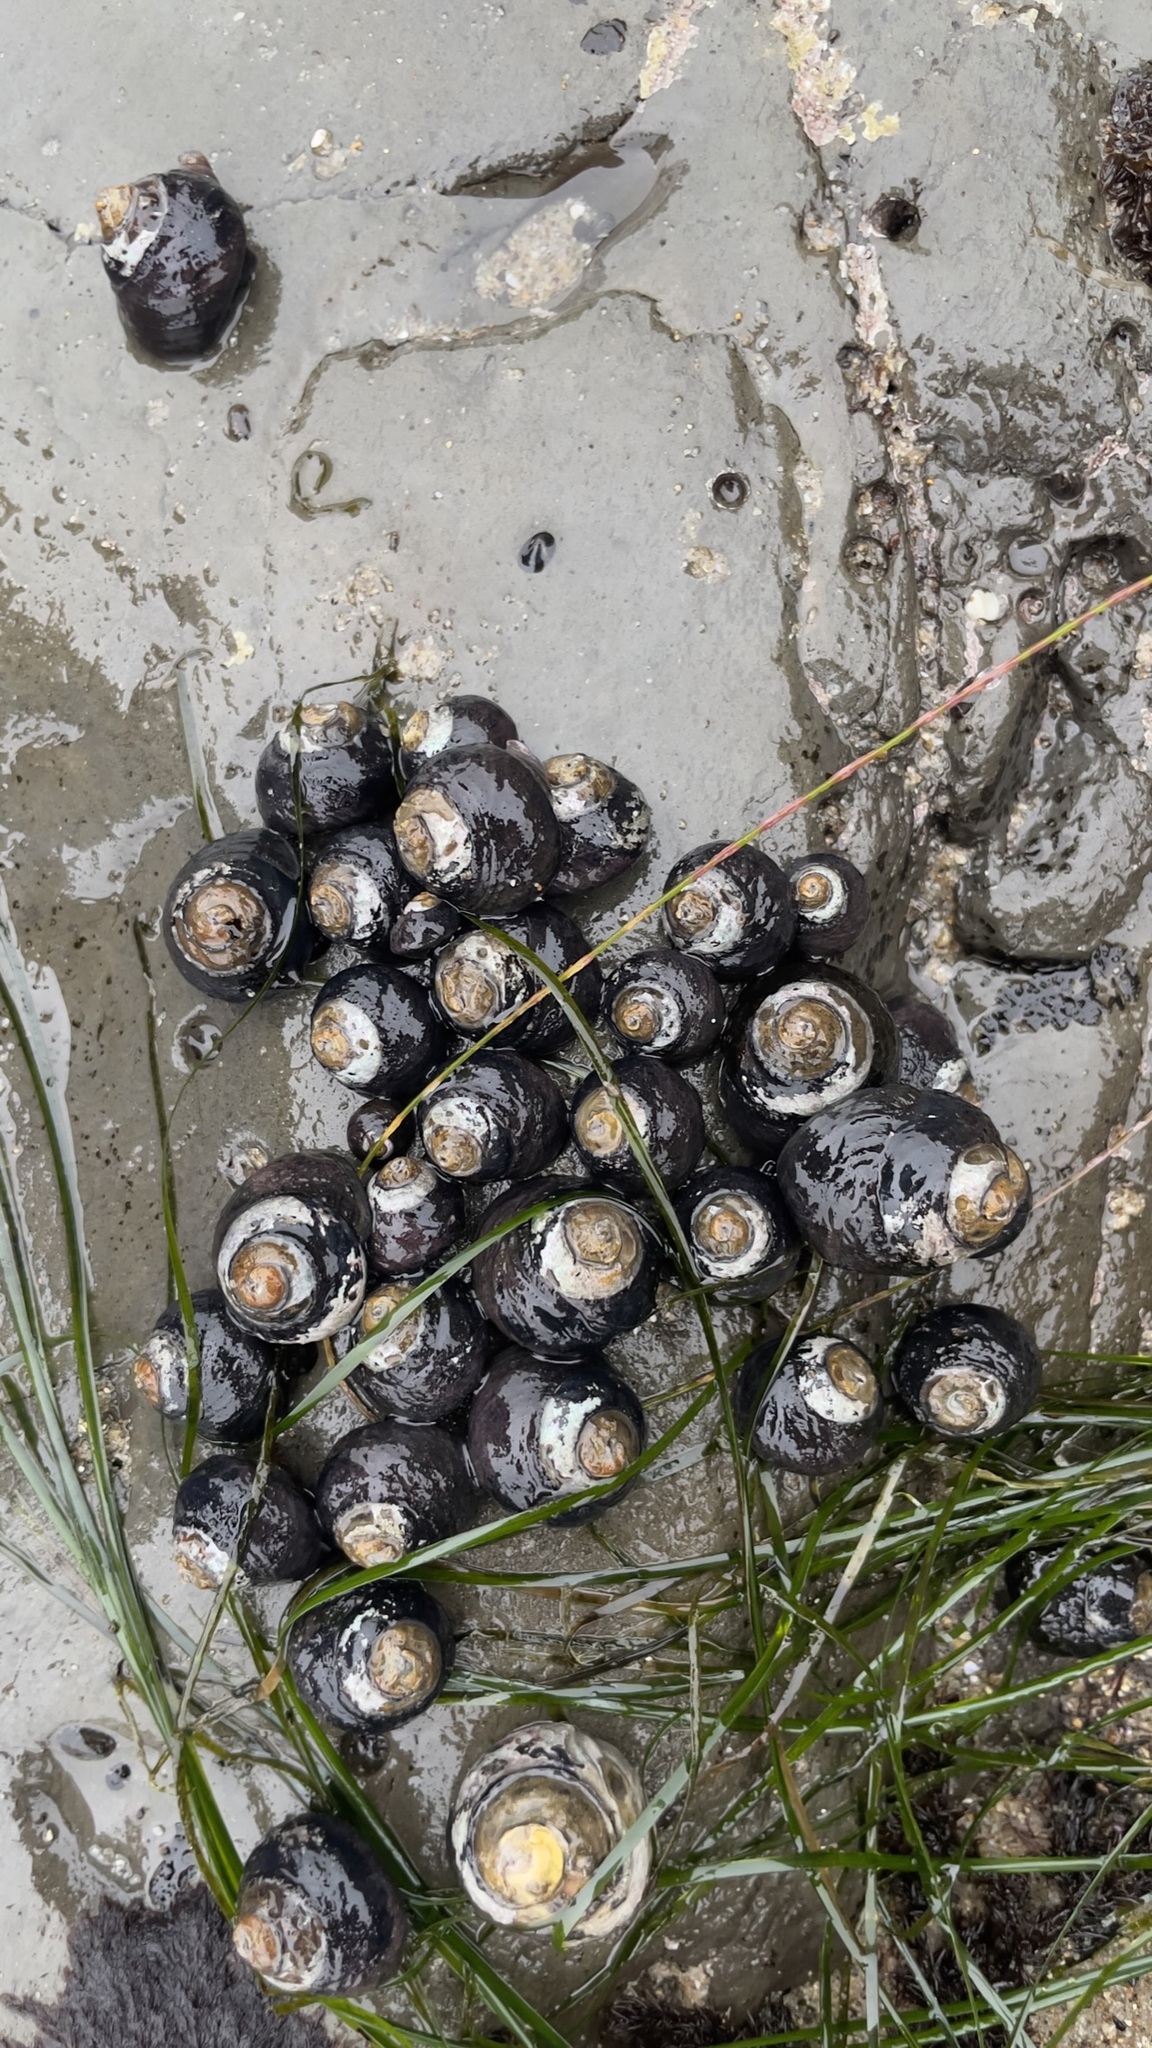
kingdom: Animalia
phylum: Mollusca
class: Gastropoda
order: Trochida
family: Tegulidae
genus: Tegula
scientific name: Tegula funebralis
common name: Black tegula
